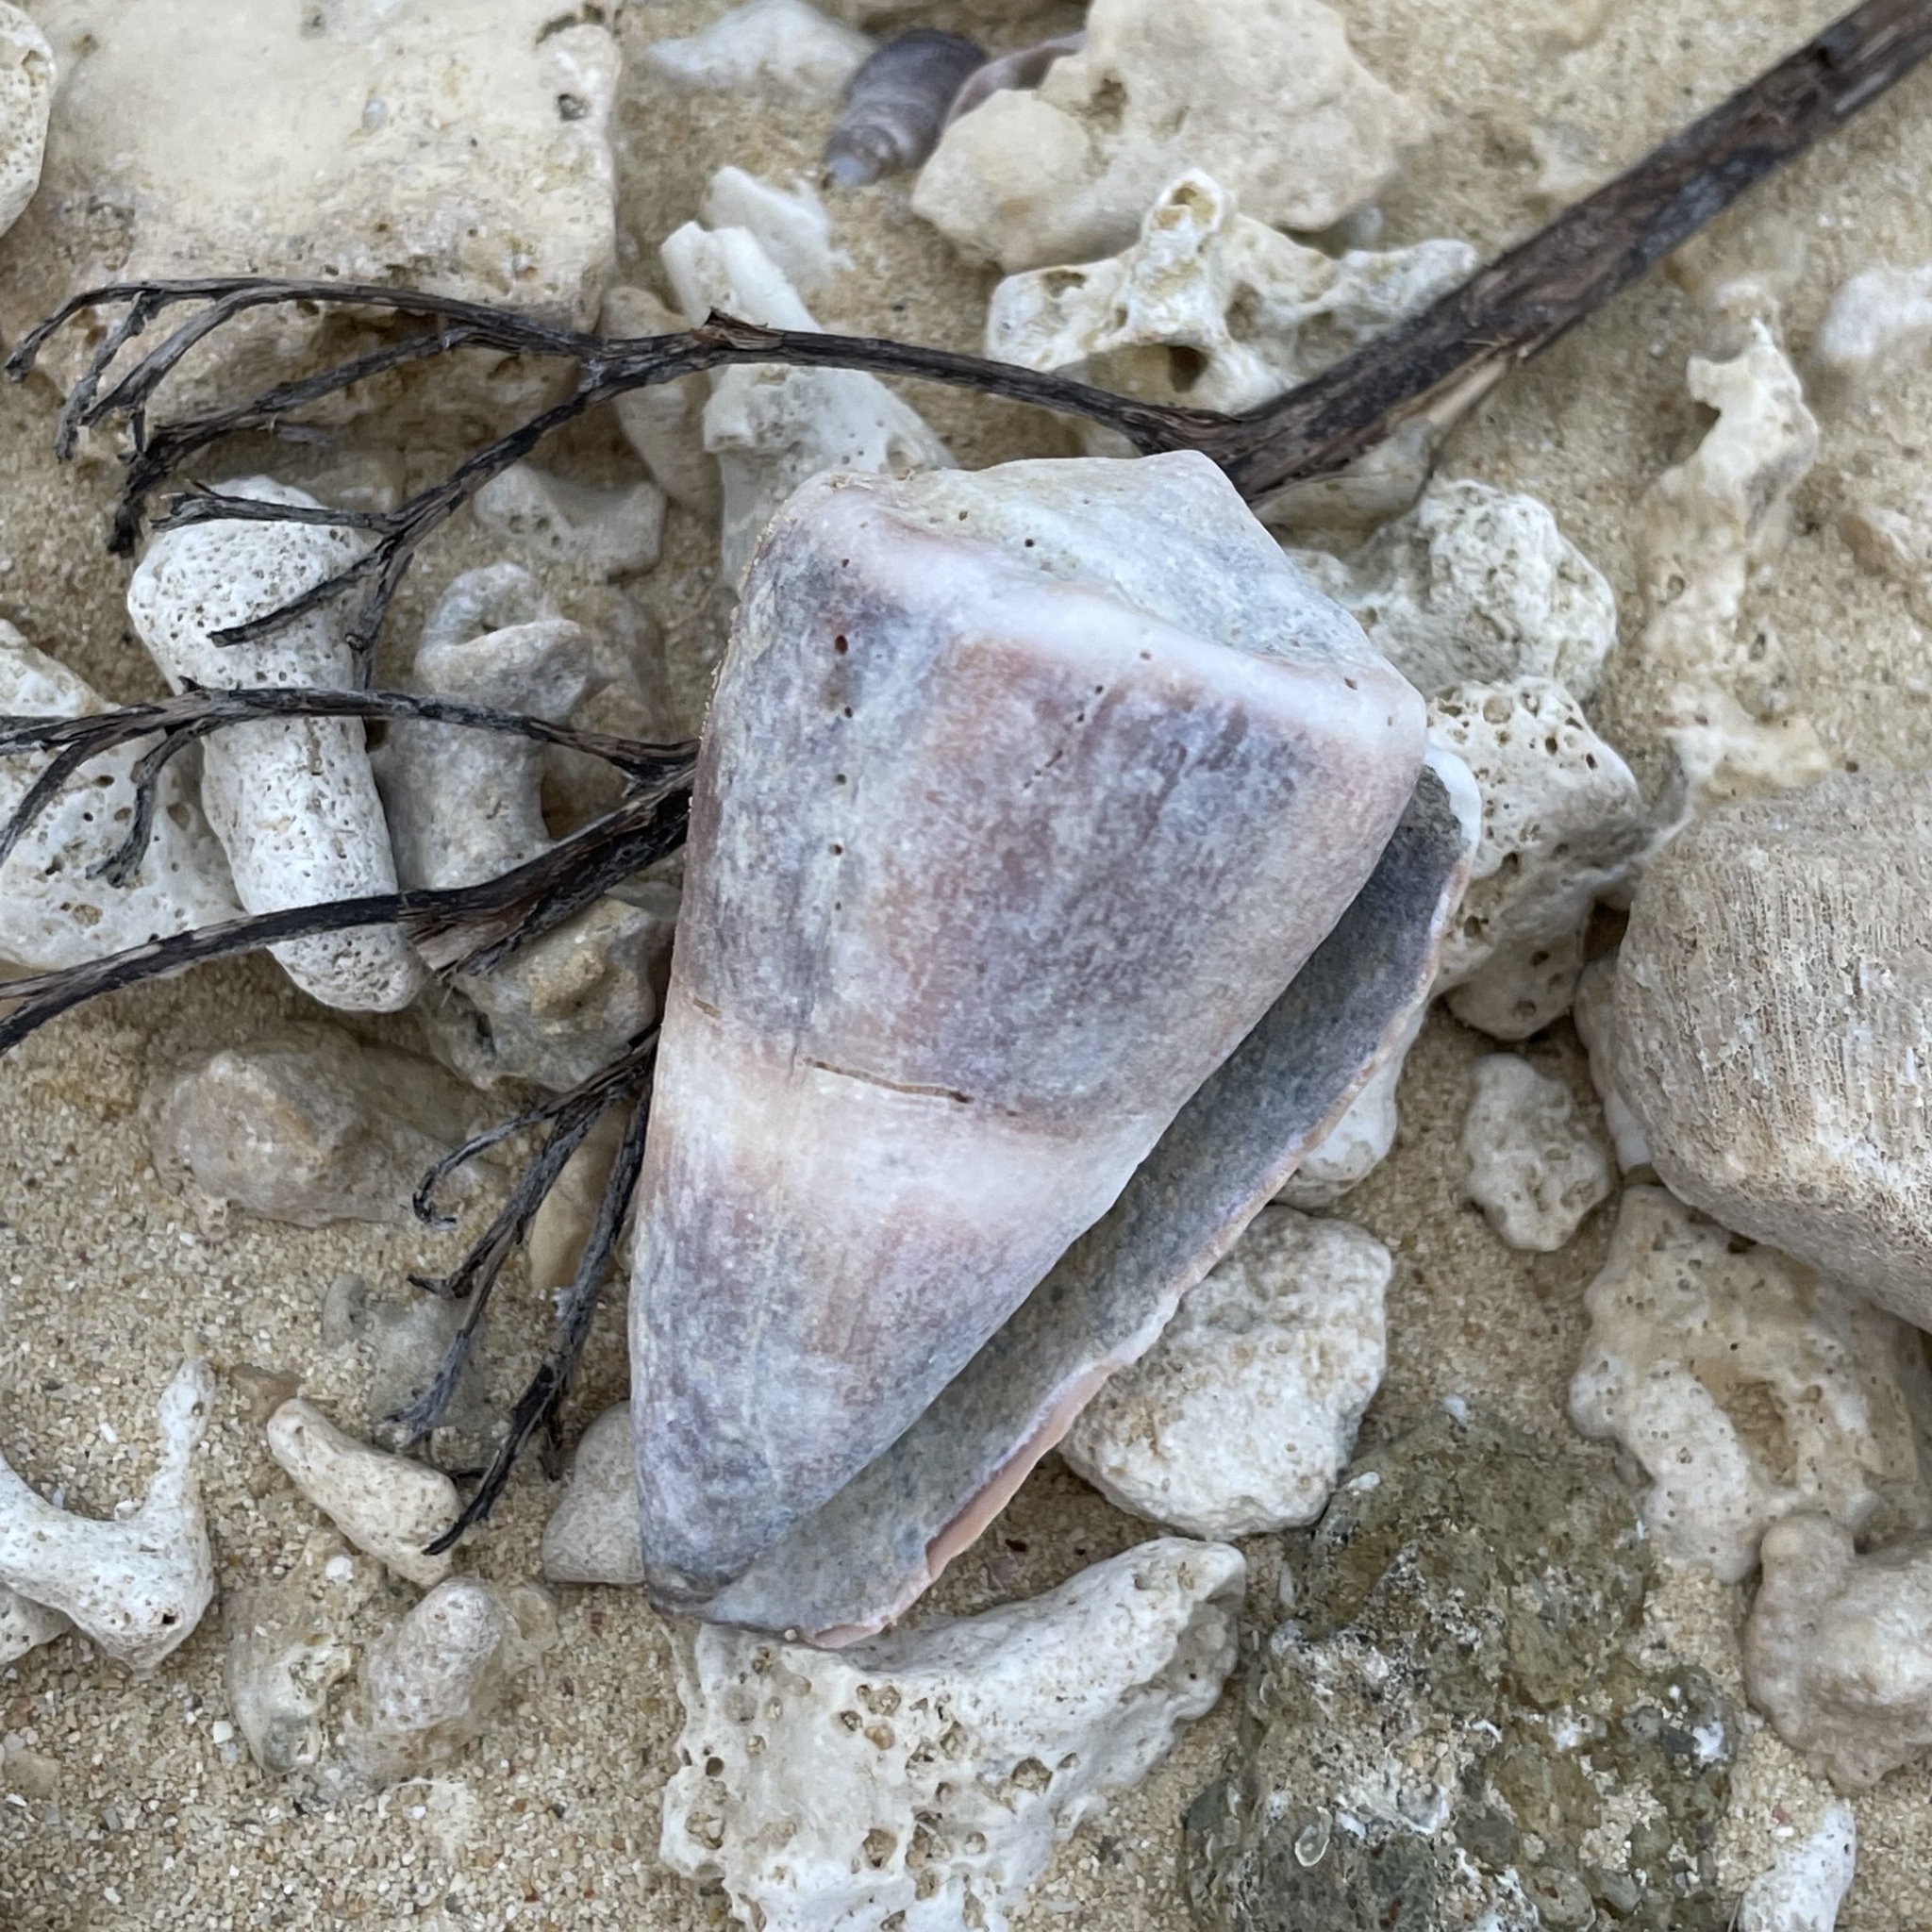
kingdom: Animalia
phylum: Mollusca
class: Gastropoda
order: Neogastropoda
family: Conidae
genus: Conus
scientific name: Conus lividus
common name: Livid cone
